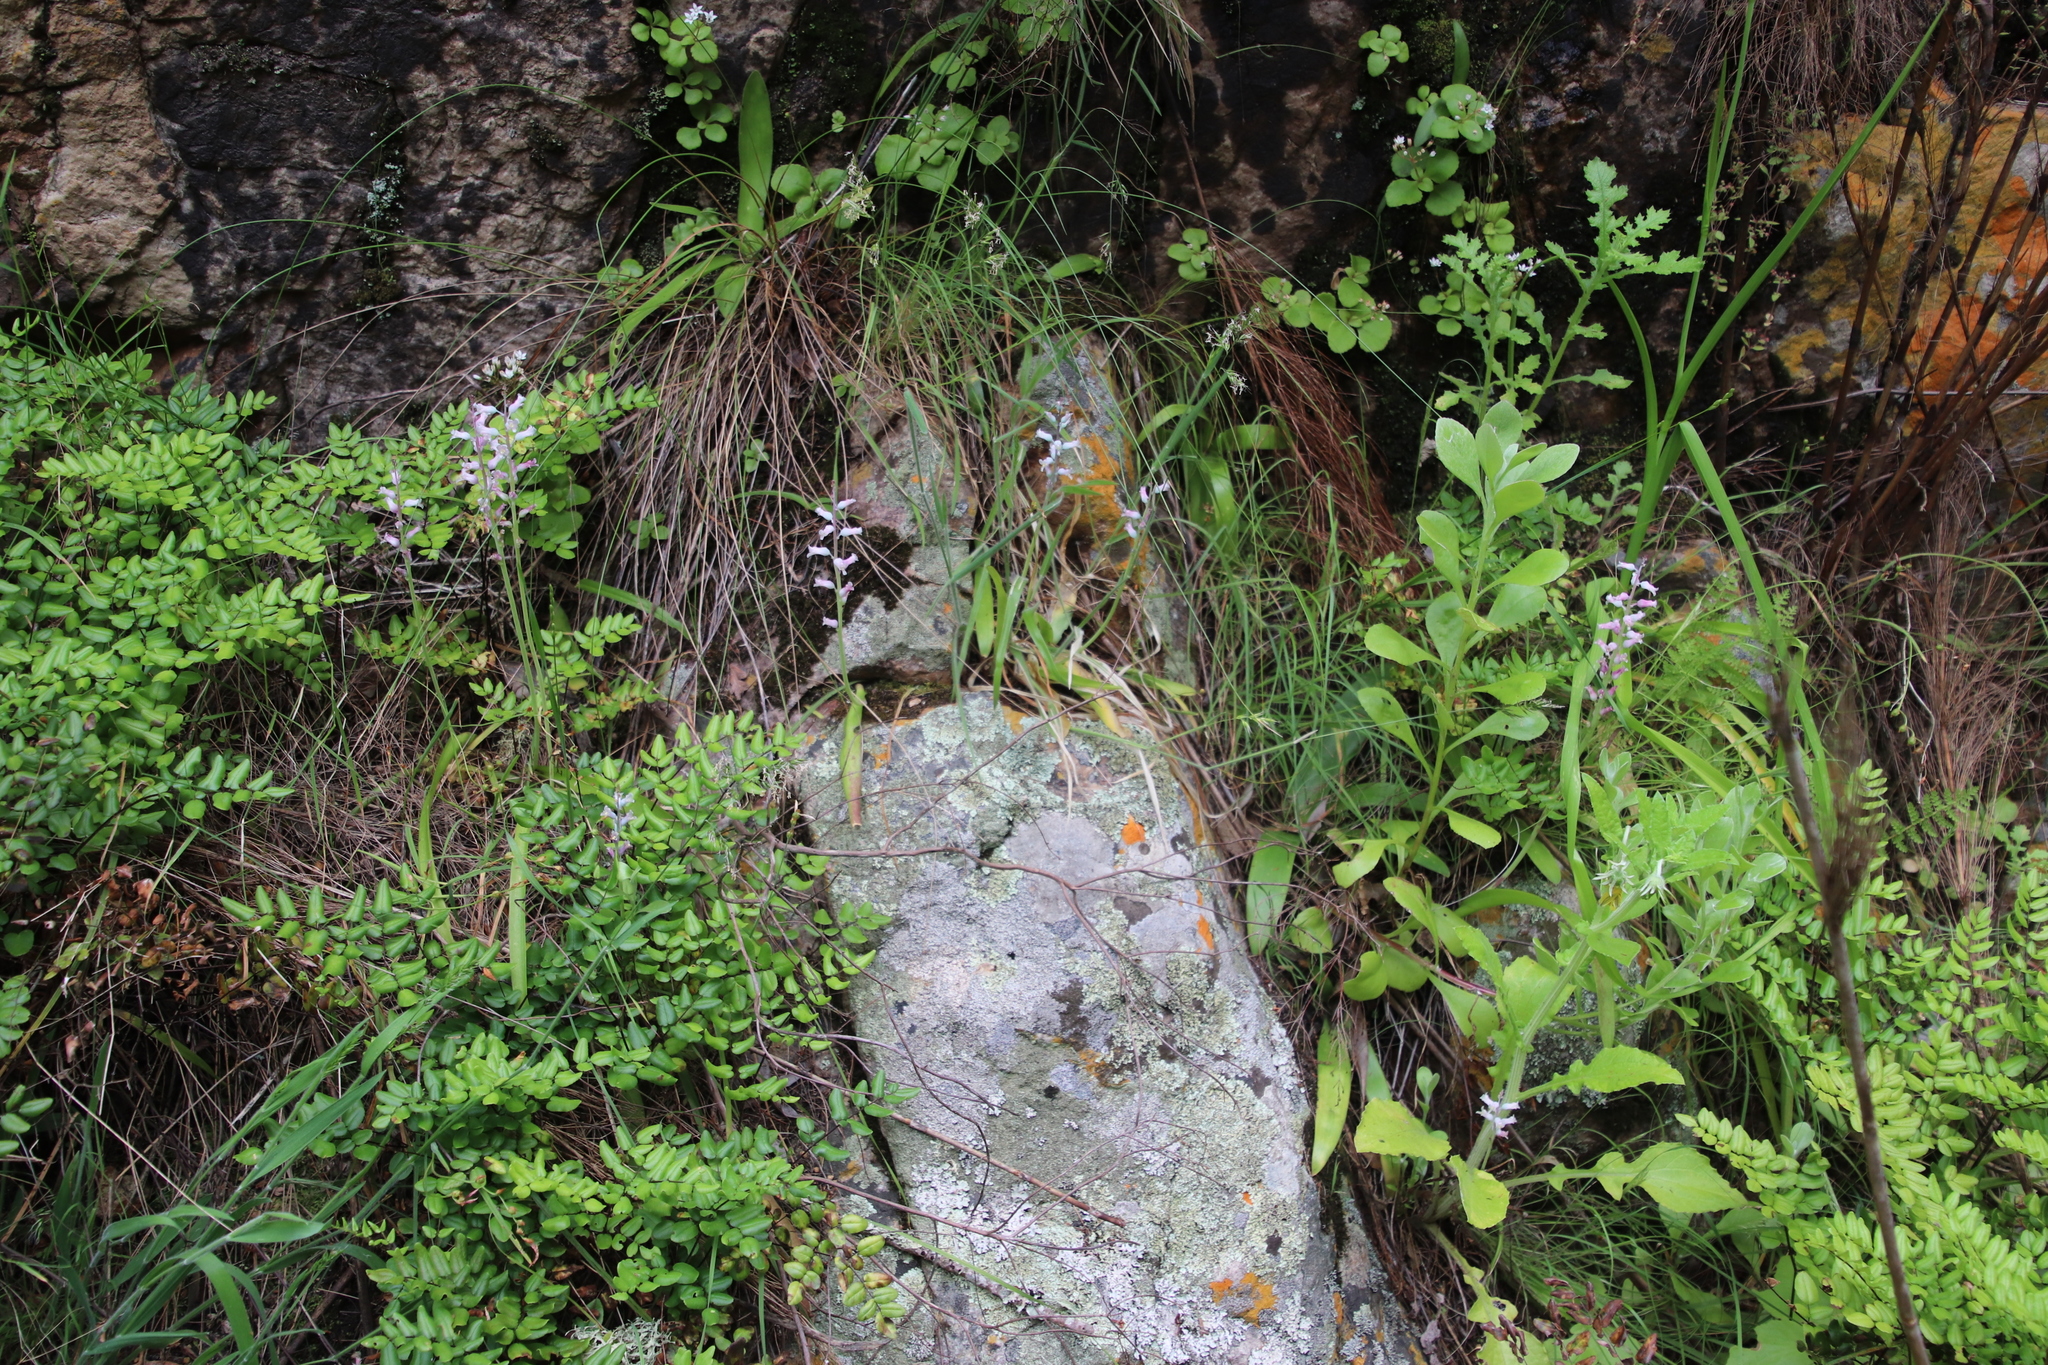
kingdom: Plantae
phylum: Tracheophyta
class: Liliopsida
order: Asparagales
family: Asparagaceae
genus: Lachenalia
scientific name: Lachenalia rosea
